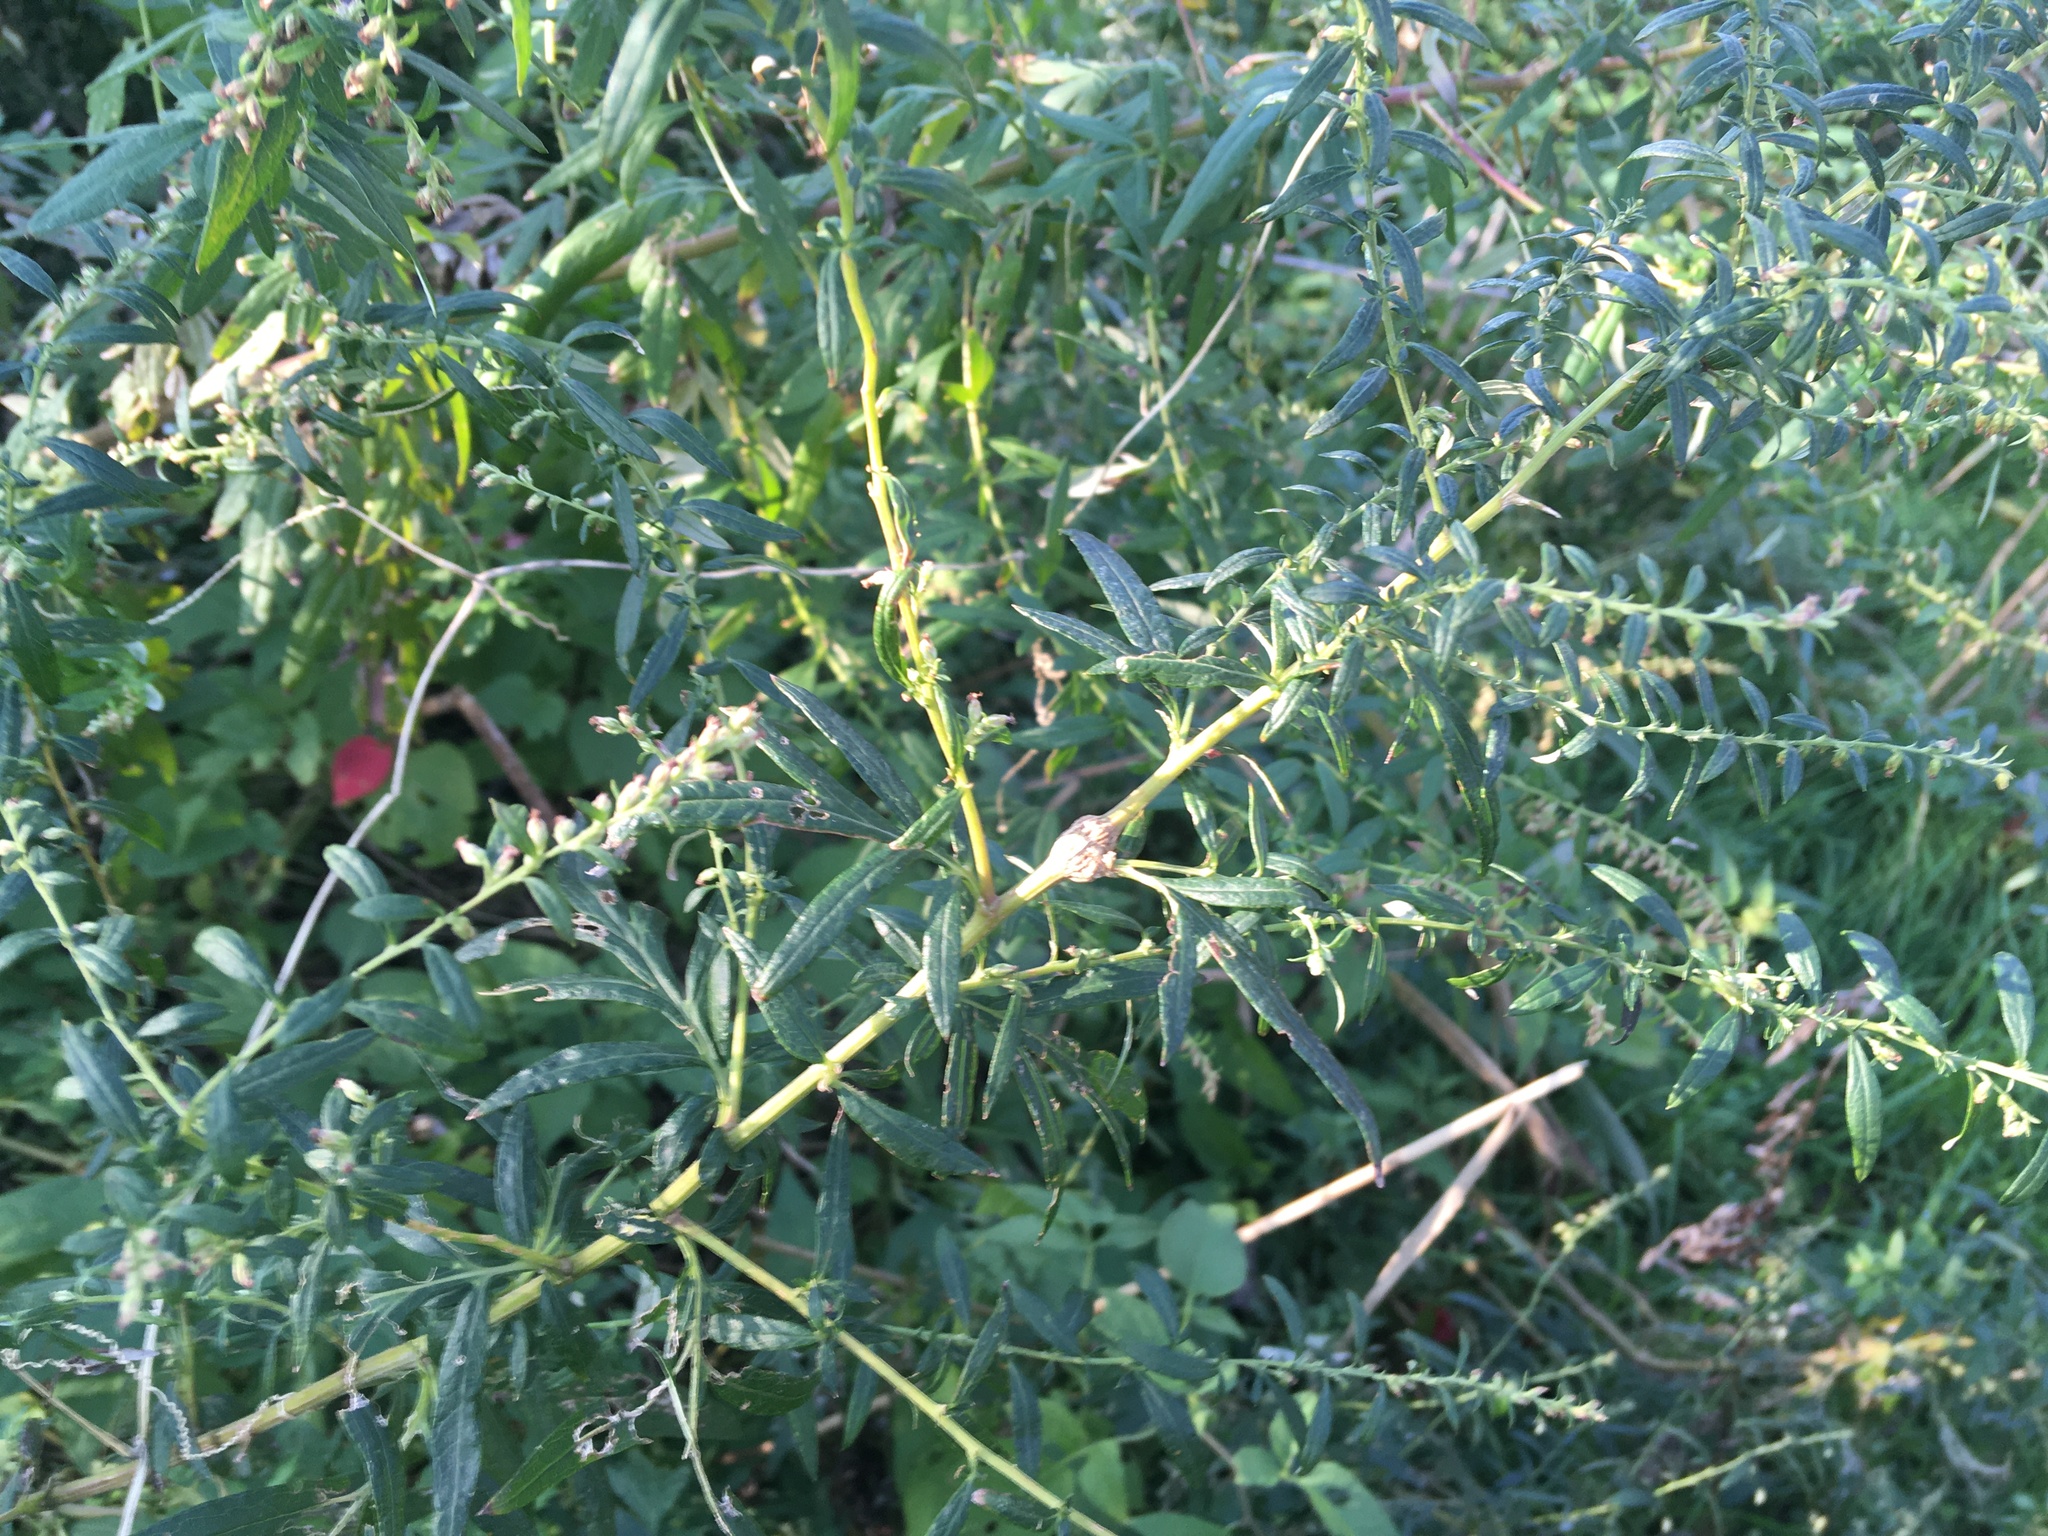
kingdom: Plantae
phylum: Tracheophyta
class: Magnoliopsida
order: Asterales
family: Asteraceae
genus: Artemisia
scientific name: Artemisia vulgaris
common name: Mugwort
